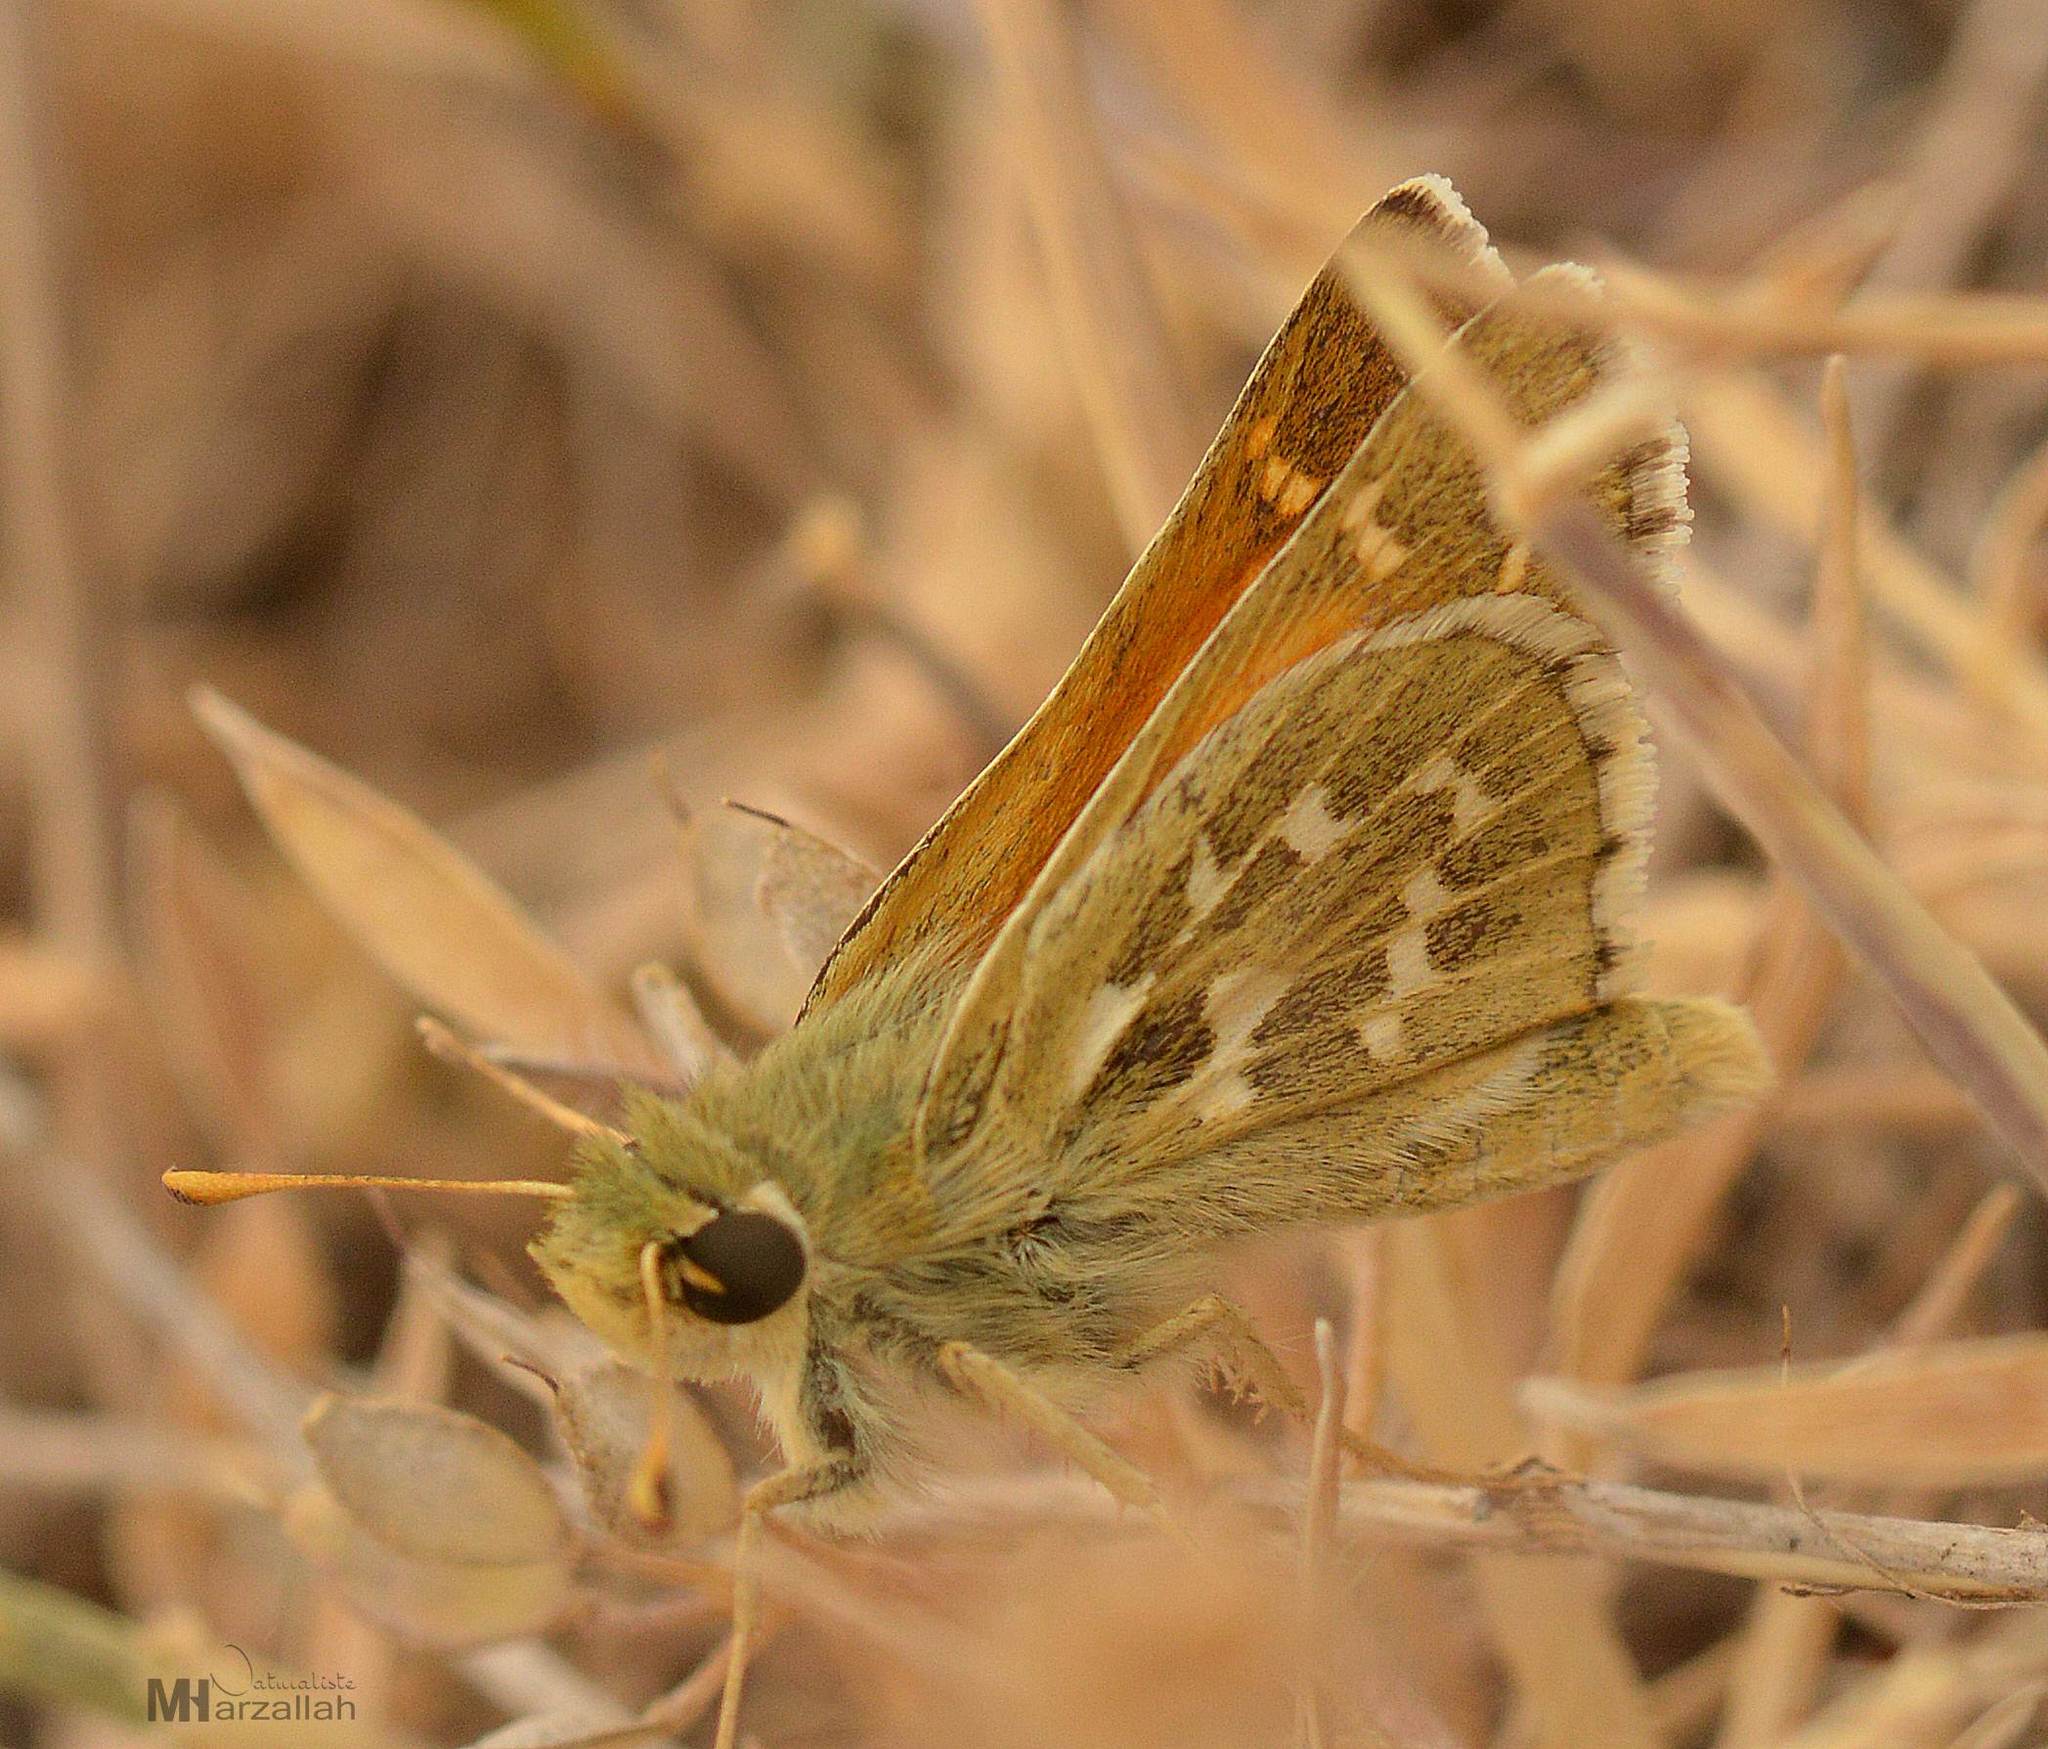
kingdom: Animalia
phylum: Arthropoda
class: Insecta
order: Lepidoptera
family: Hesperiidae
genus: Hesperia
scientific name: Hesperia comma
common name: Common branded skipper
